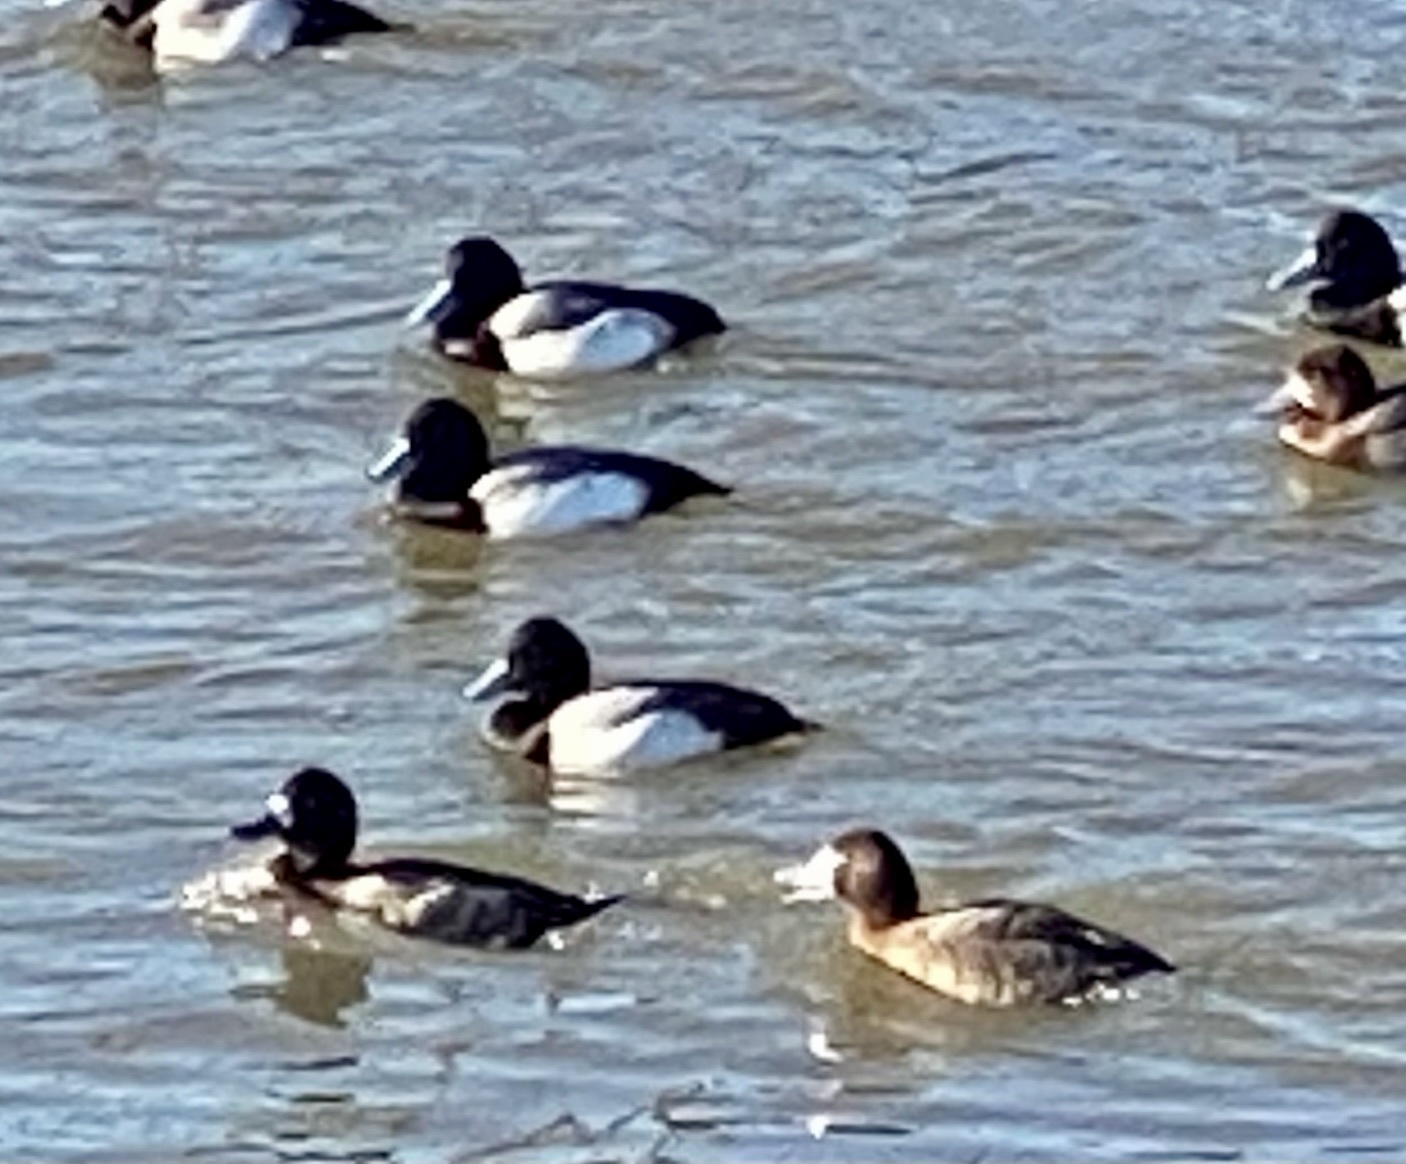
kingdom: Animalia
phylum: Chordata
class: Aves
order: Anseriformes
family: Anatidae
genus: Aythya
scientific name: Aythya
